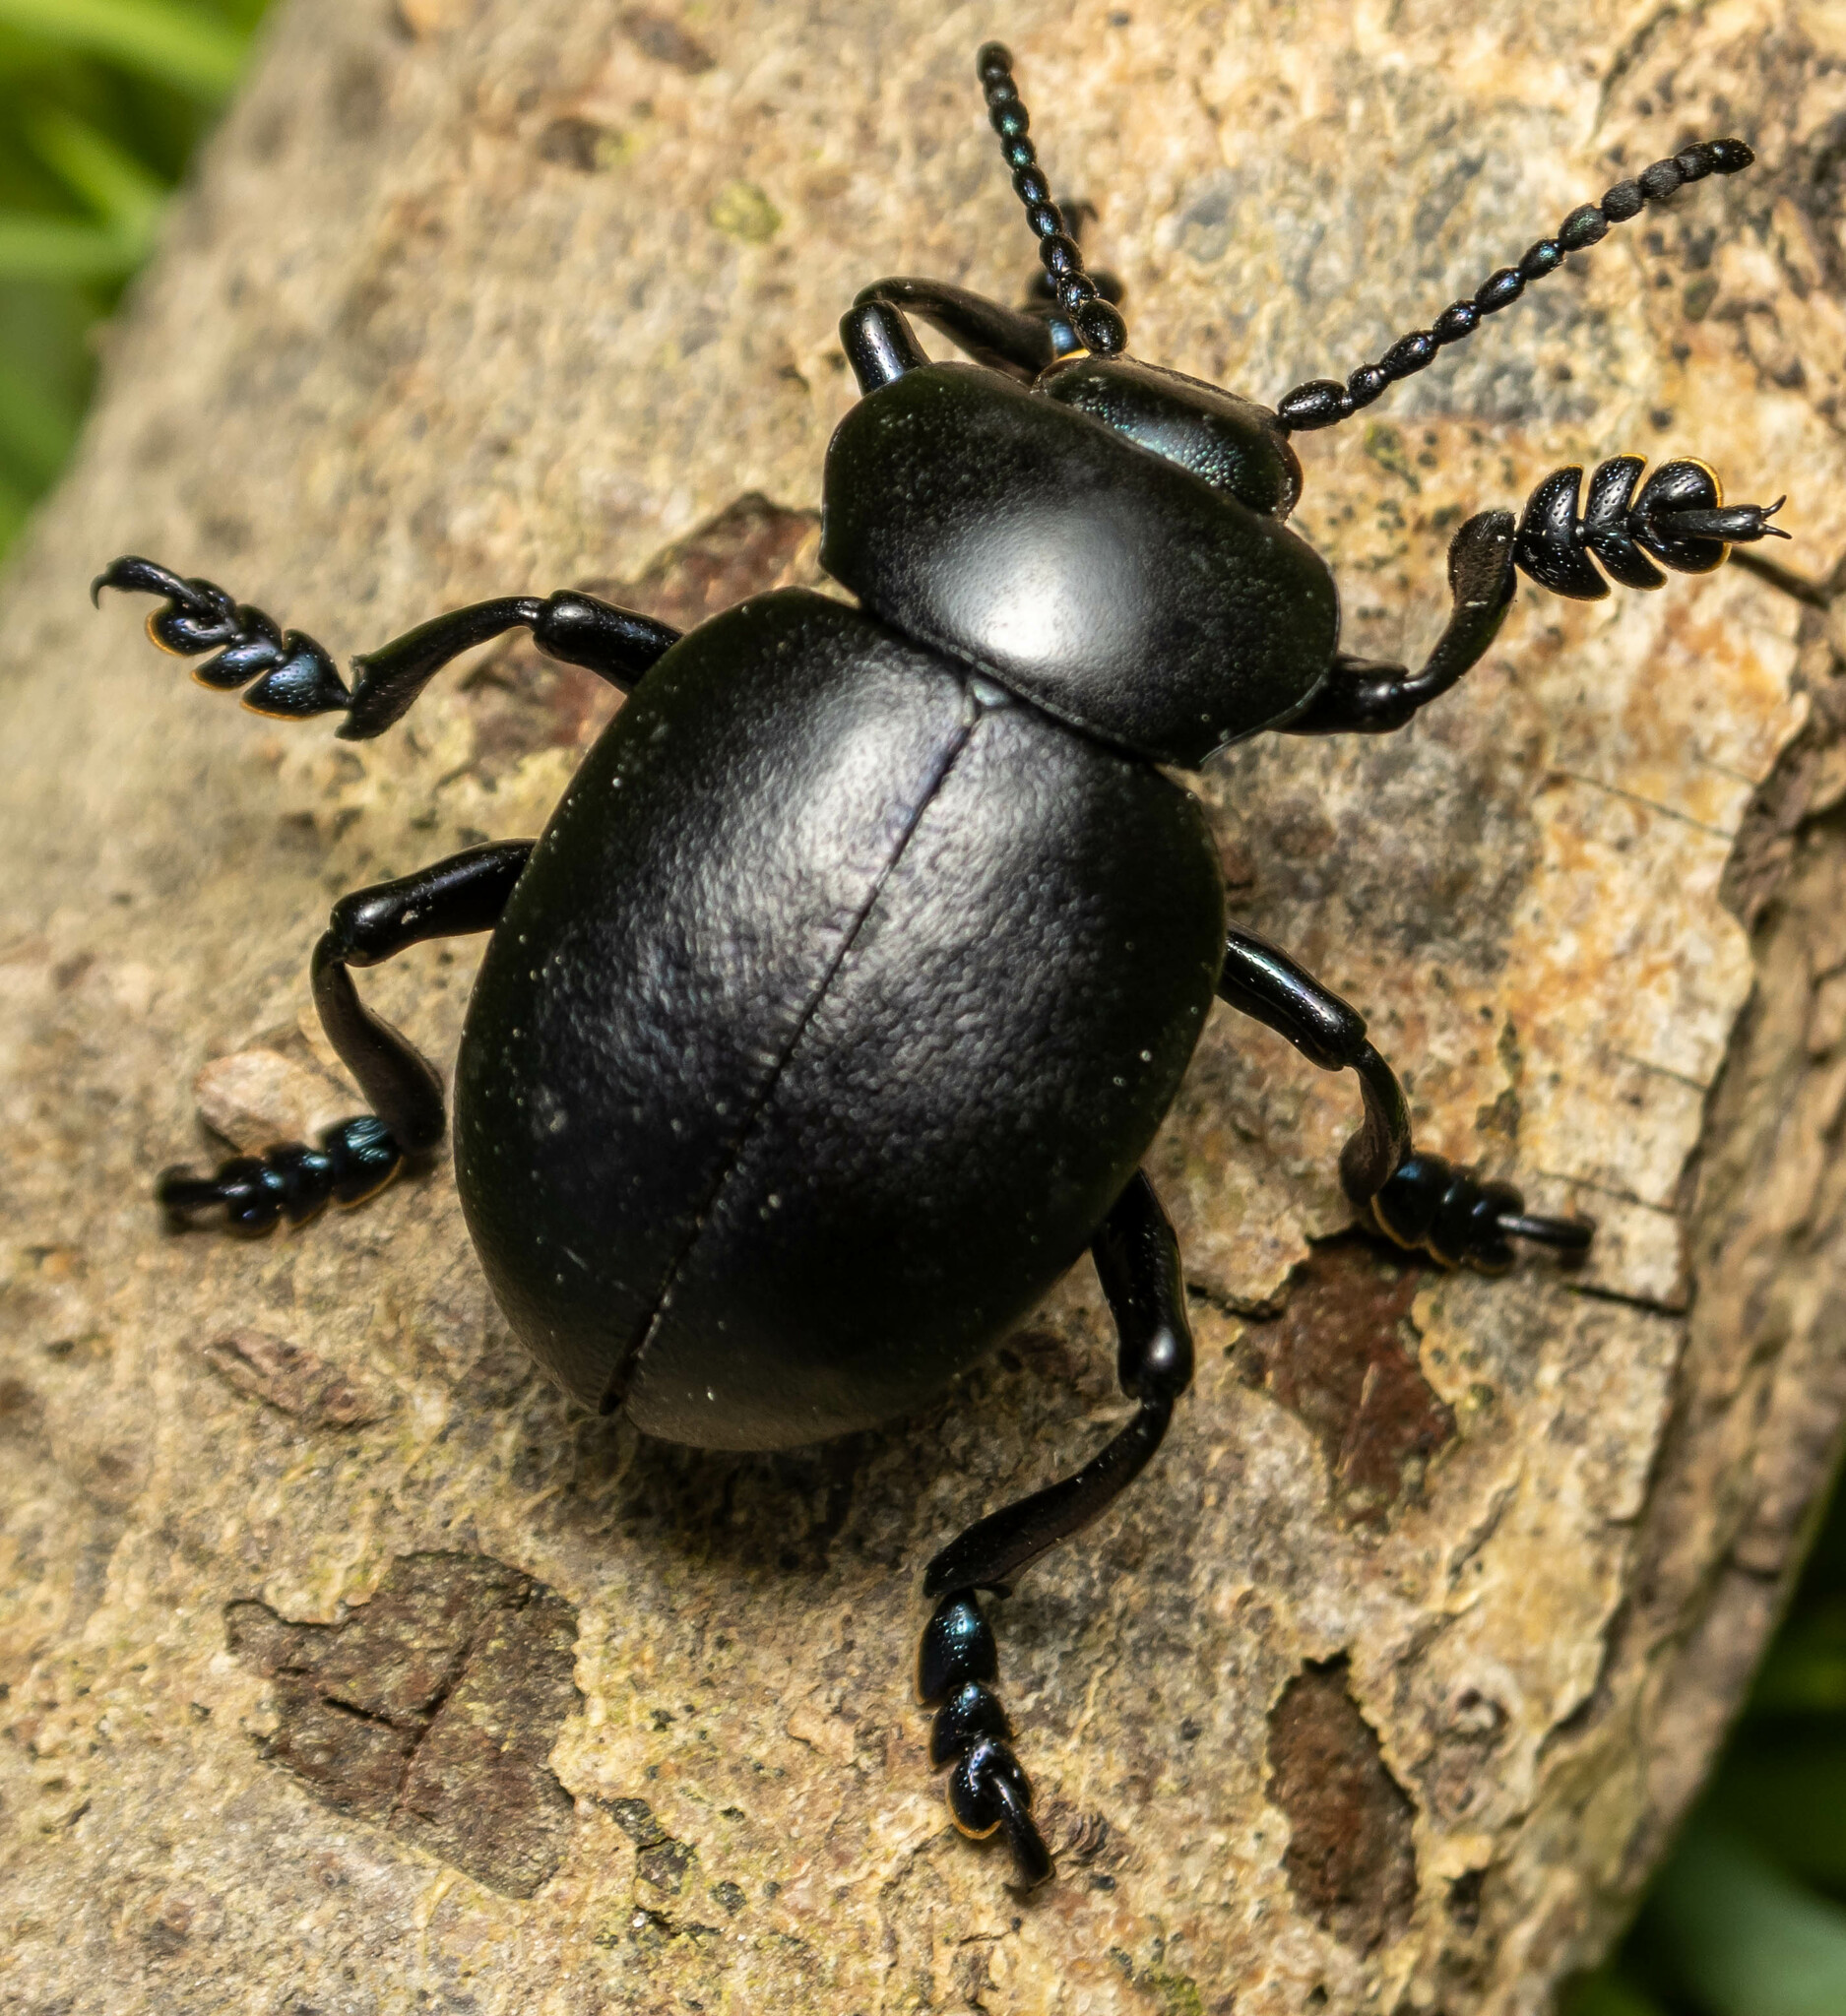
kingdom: Animalia
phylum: Arthropoda
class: Insecta
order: Coleoptera
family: Chrysomelidae
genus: Timarcha
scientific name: Timarcha tenebricosa
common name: Bloody-nosed beetle
